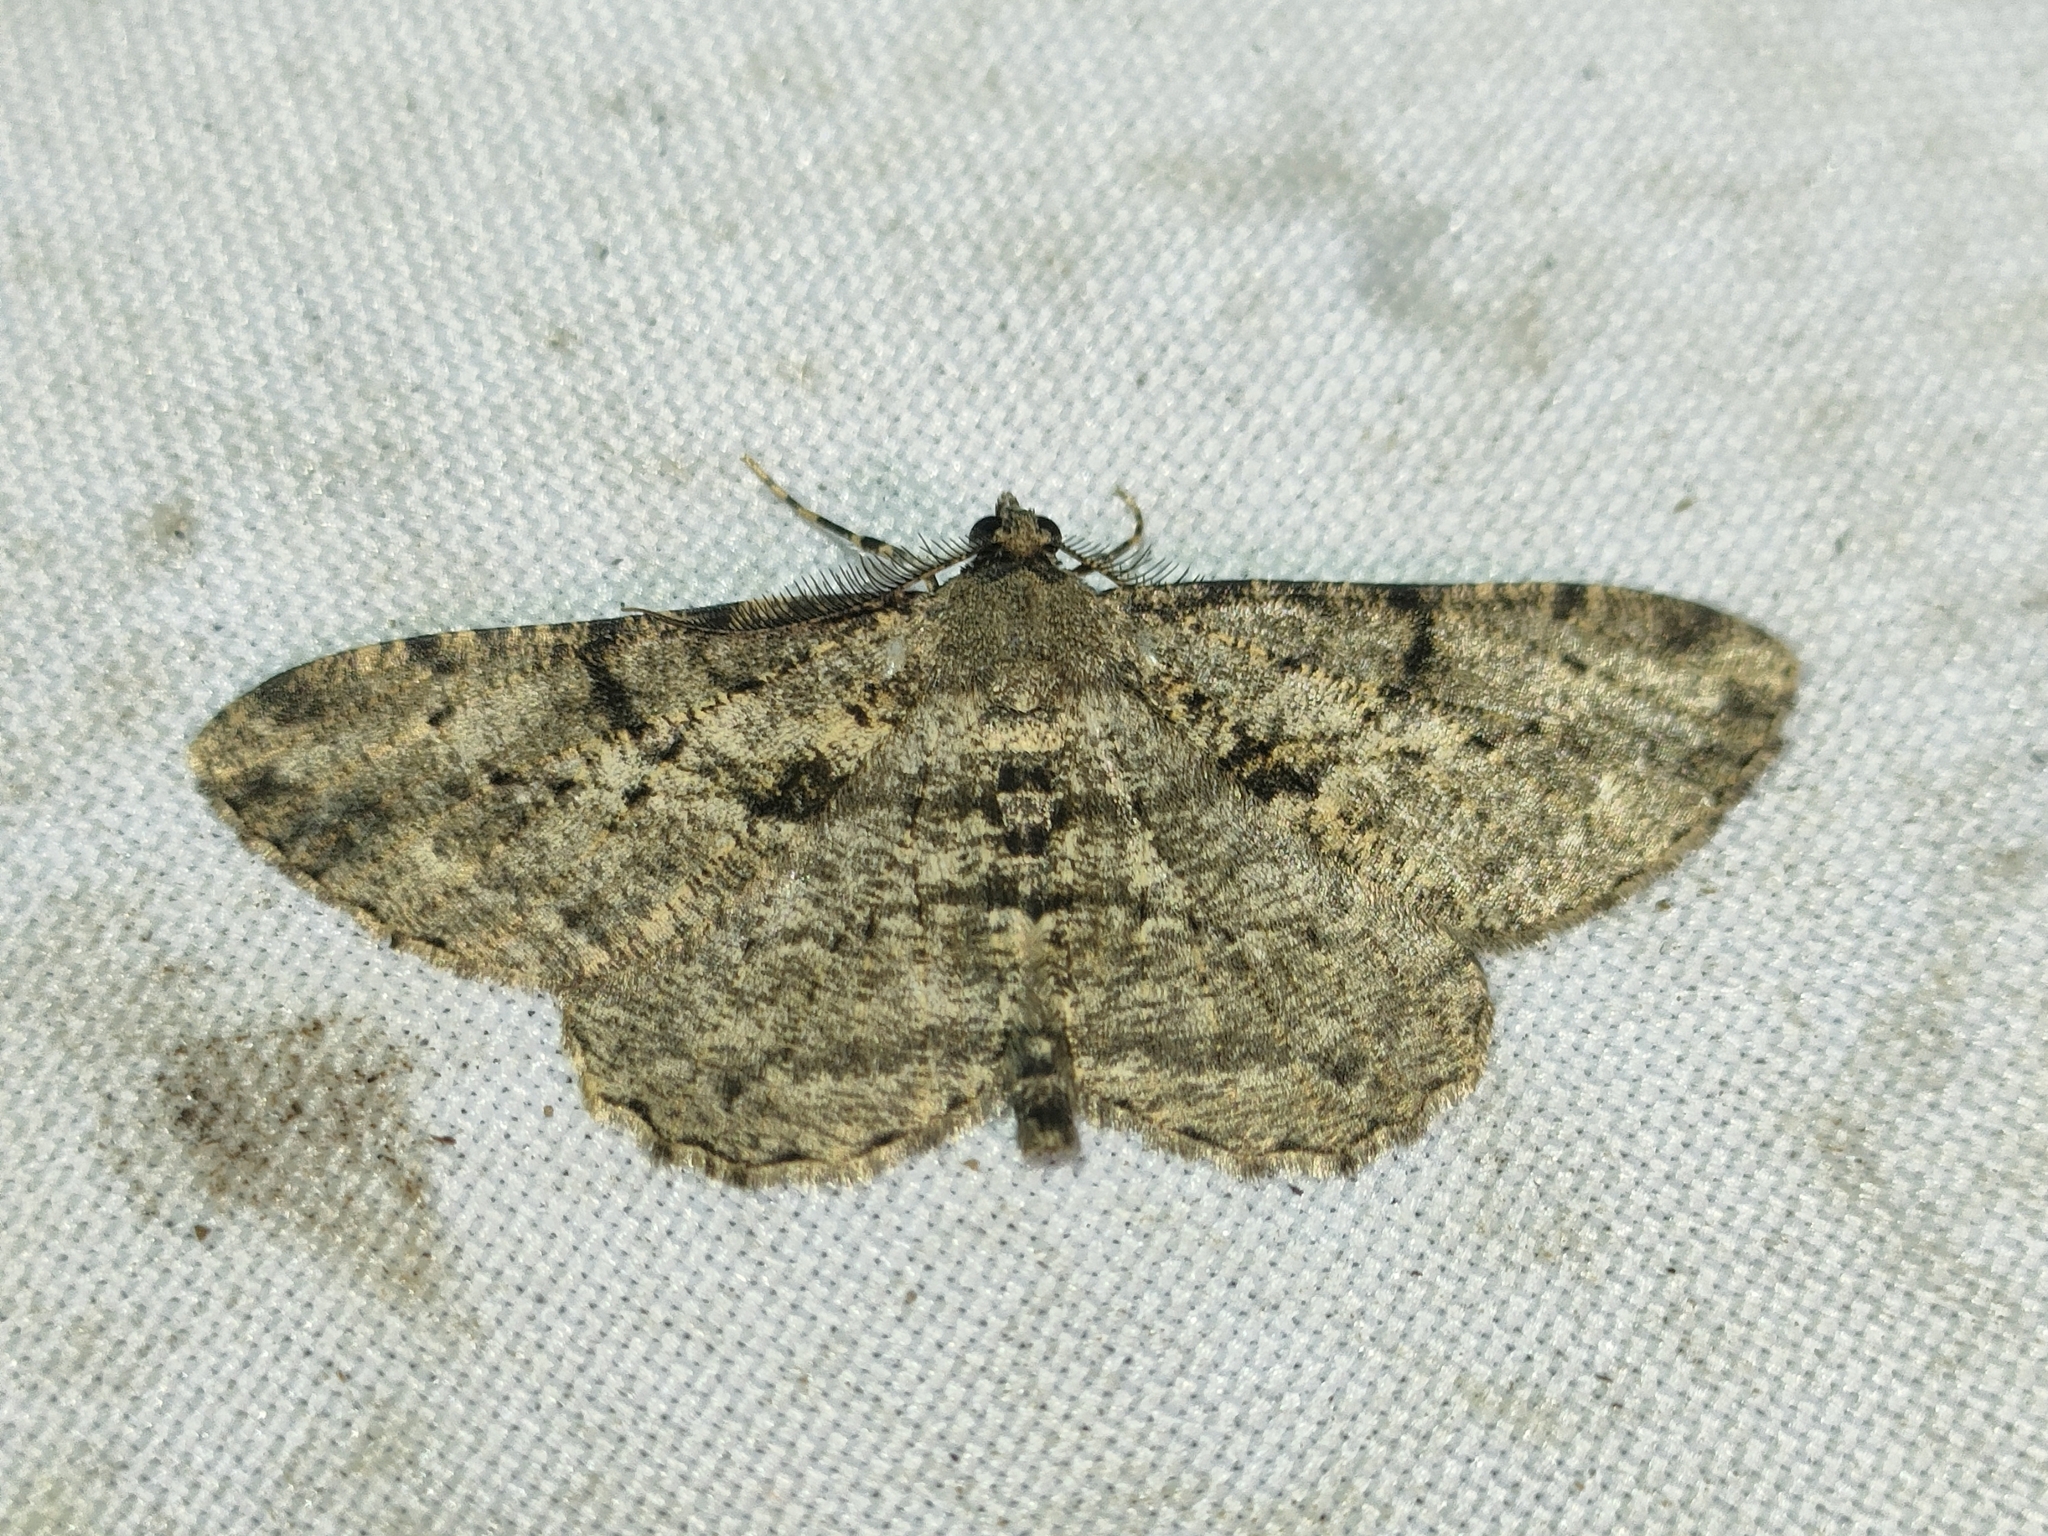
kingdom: Animalia
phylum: Arthropoda
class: Insecta
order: Lepidoptera
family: Geometridae
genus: Peribatodes
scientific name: Peribatodes rhomboidaria
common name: Willow beauty
